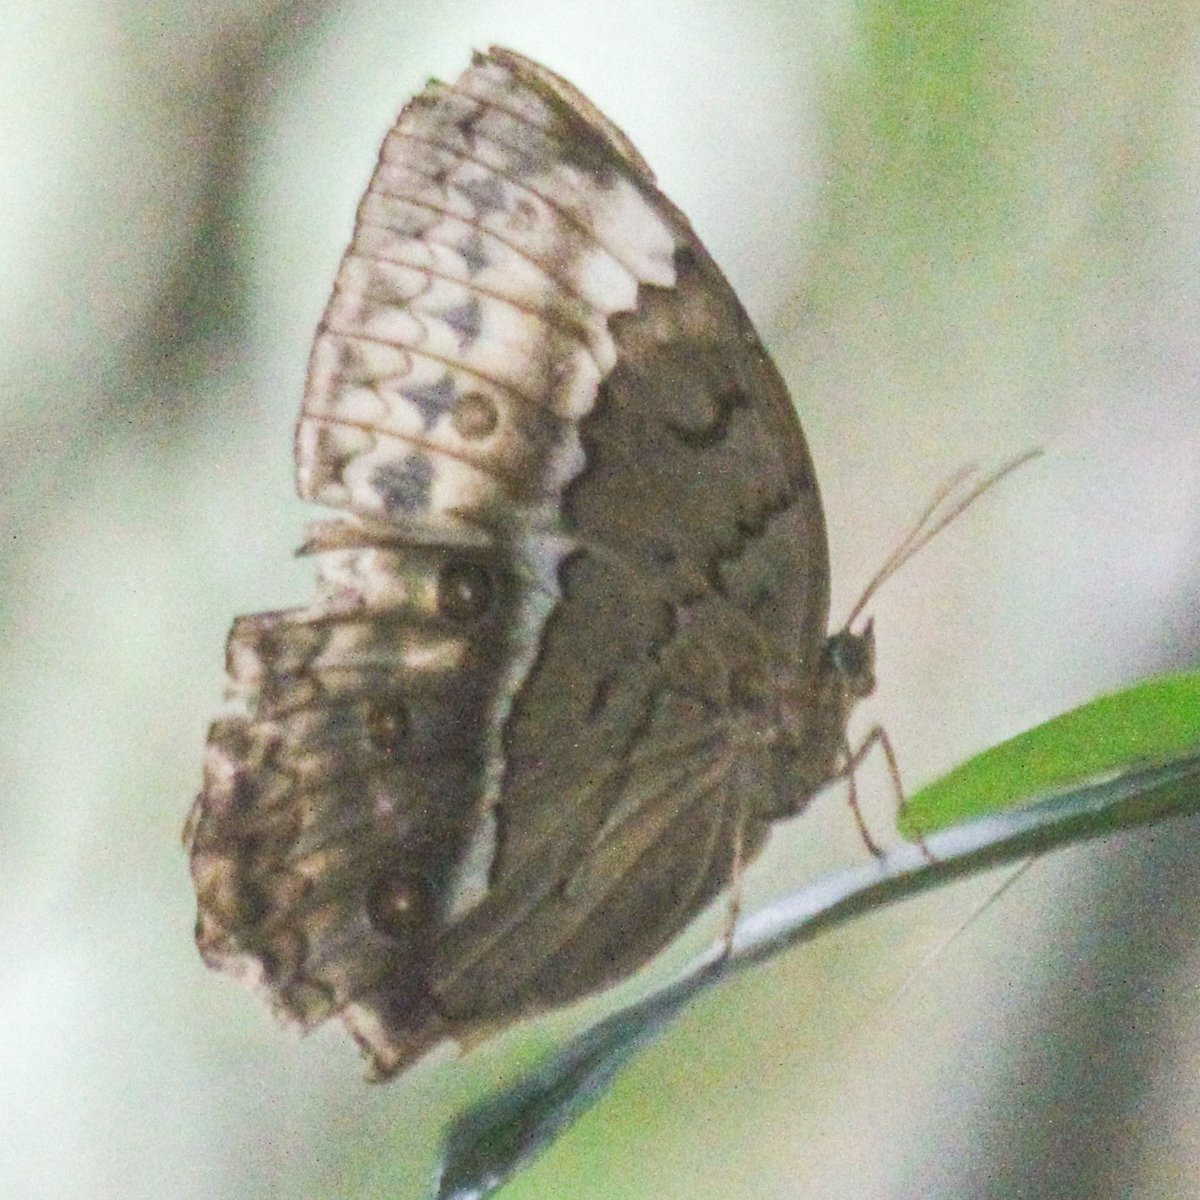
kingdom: Animalia
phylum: Arthropoda
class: Insecta
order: Lepidoptera
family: Nymphalidae
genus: Stichophthalma
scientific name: Stichophthalma cambodia
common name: Cambodian junglequeen
